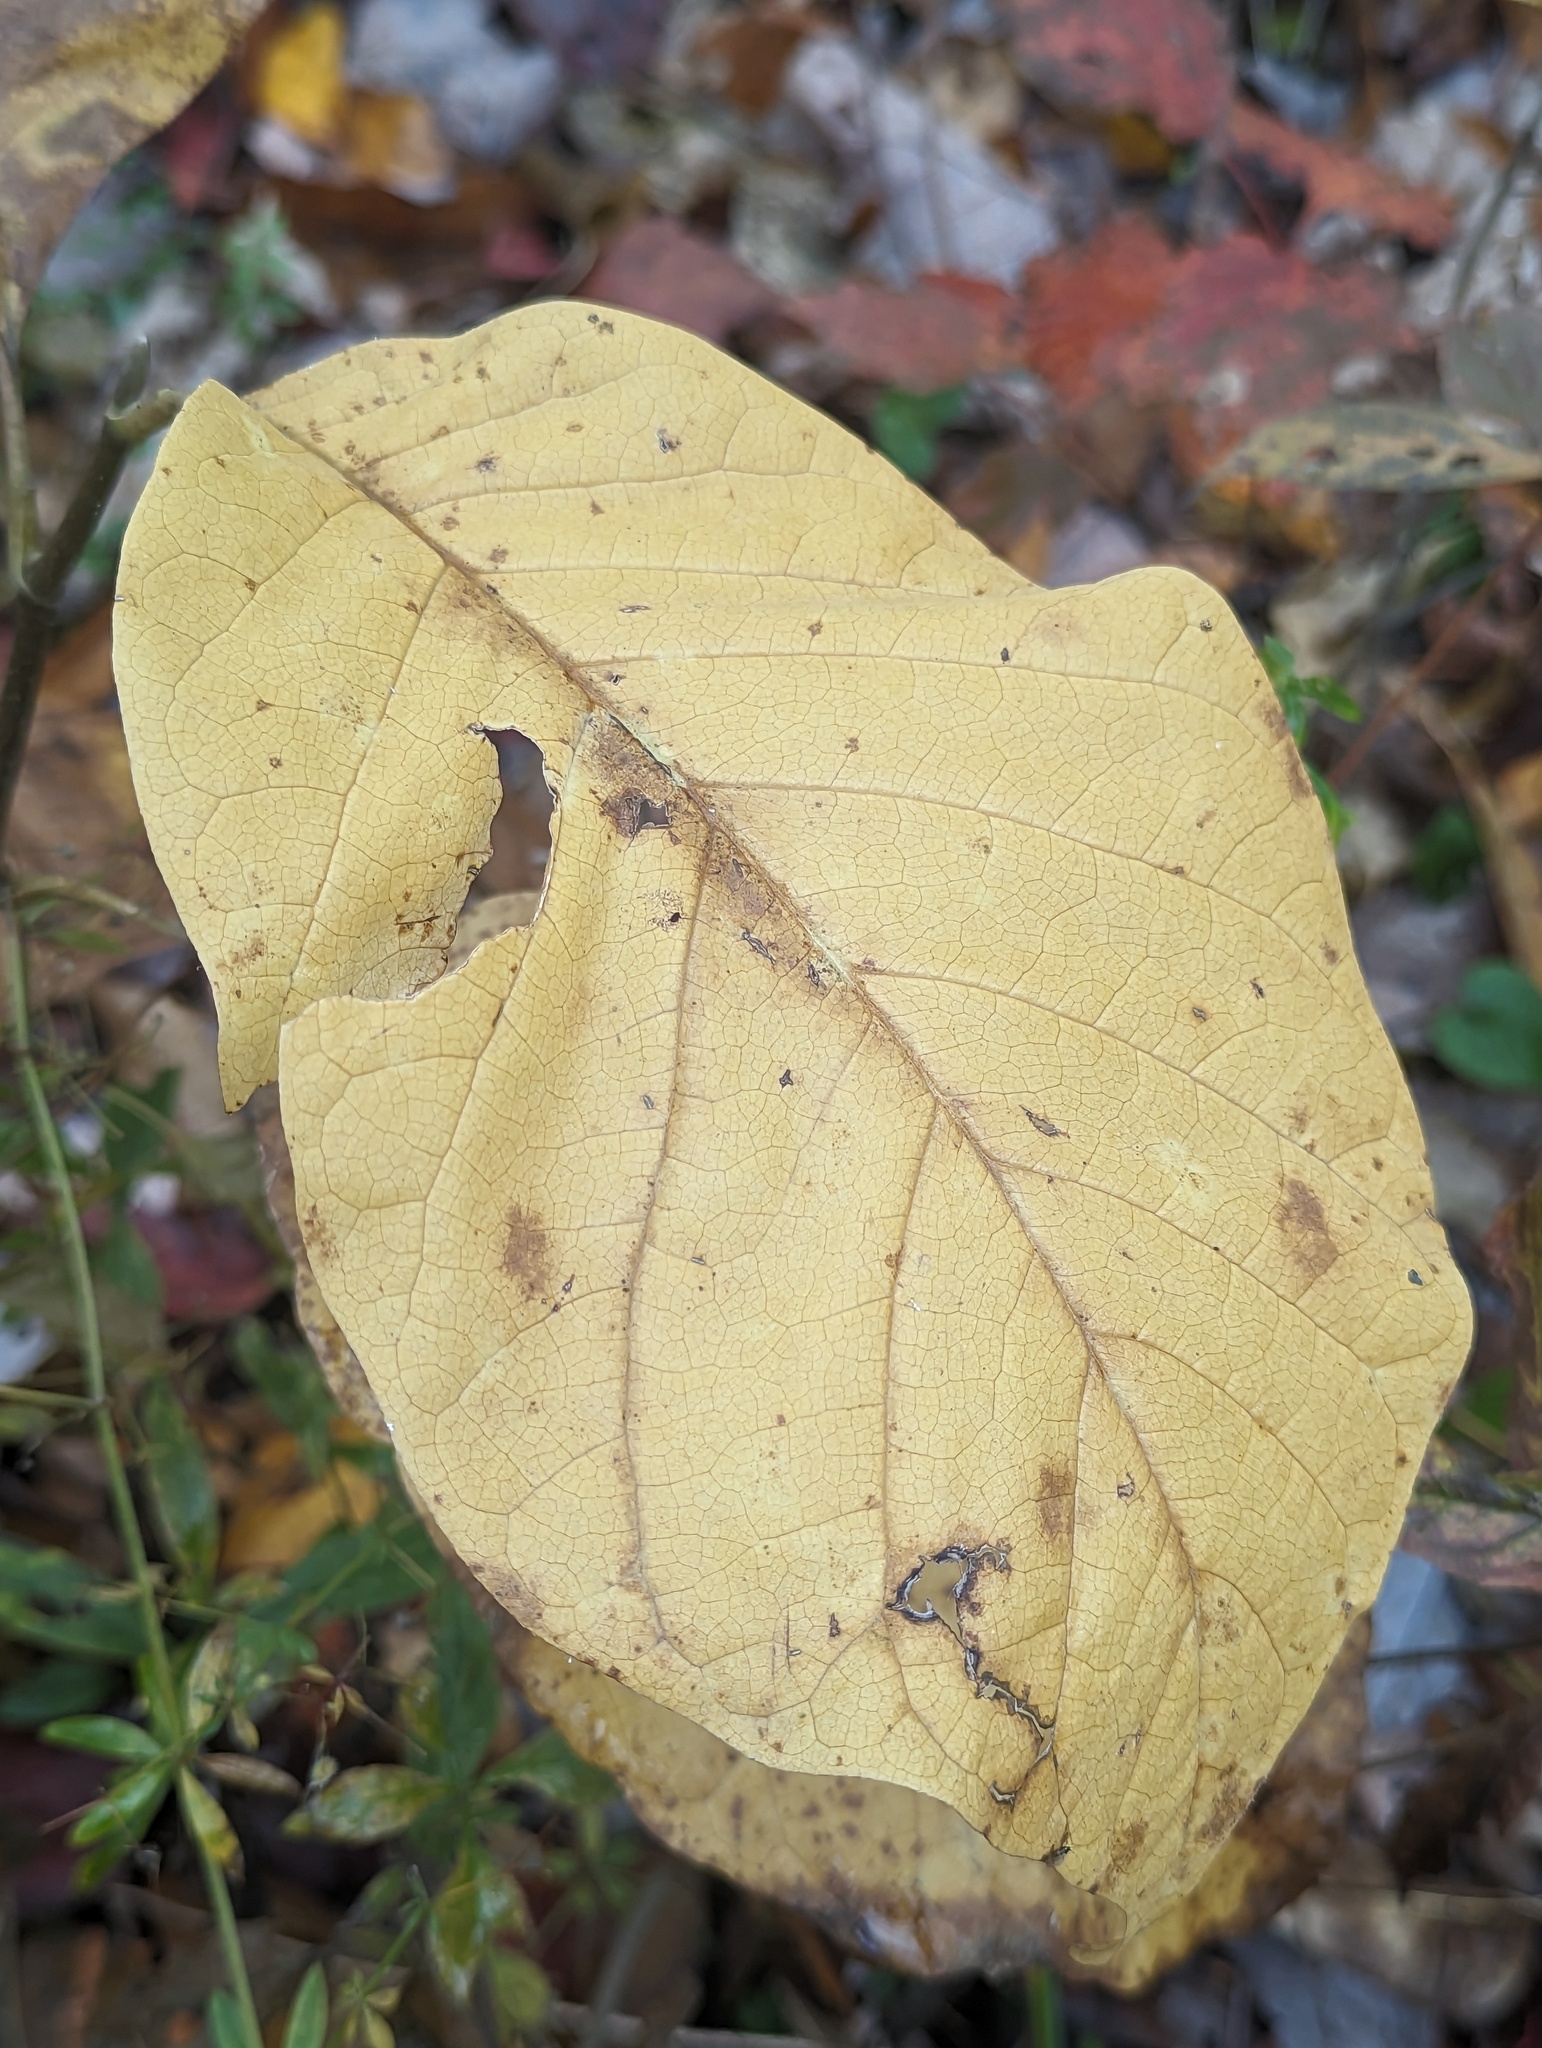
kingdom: Plantae
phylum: Tracheophyta
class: Magnoliopsida
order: Magnoliales
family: Magnoliaceae
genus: Magnolia
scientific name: Magnolia acuminata
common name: Cucumber magnolia
